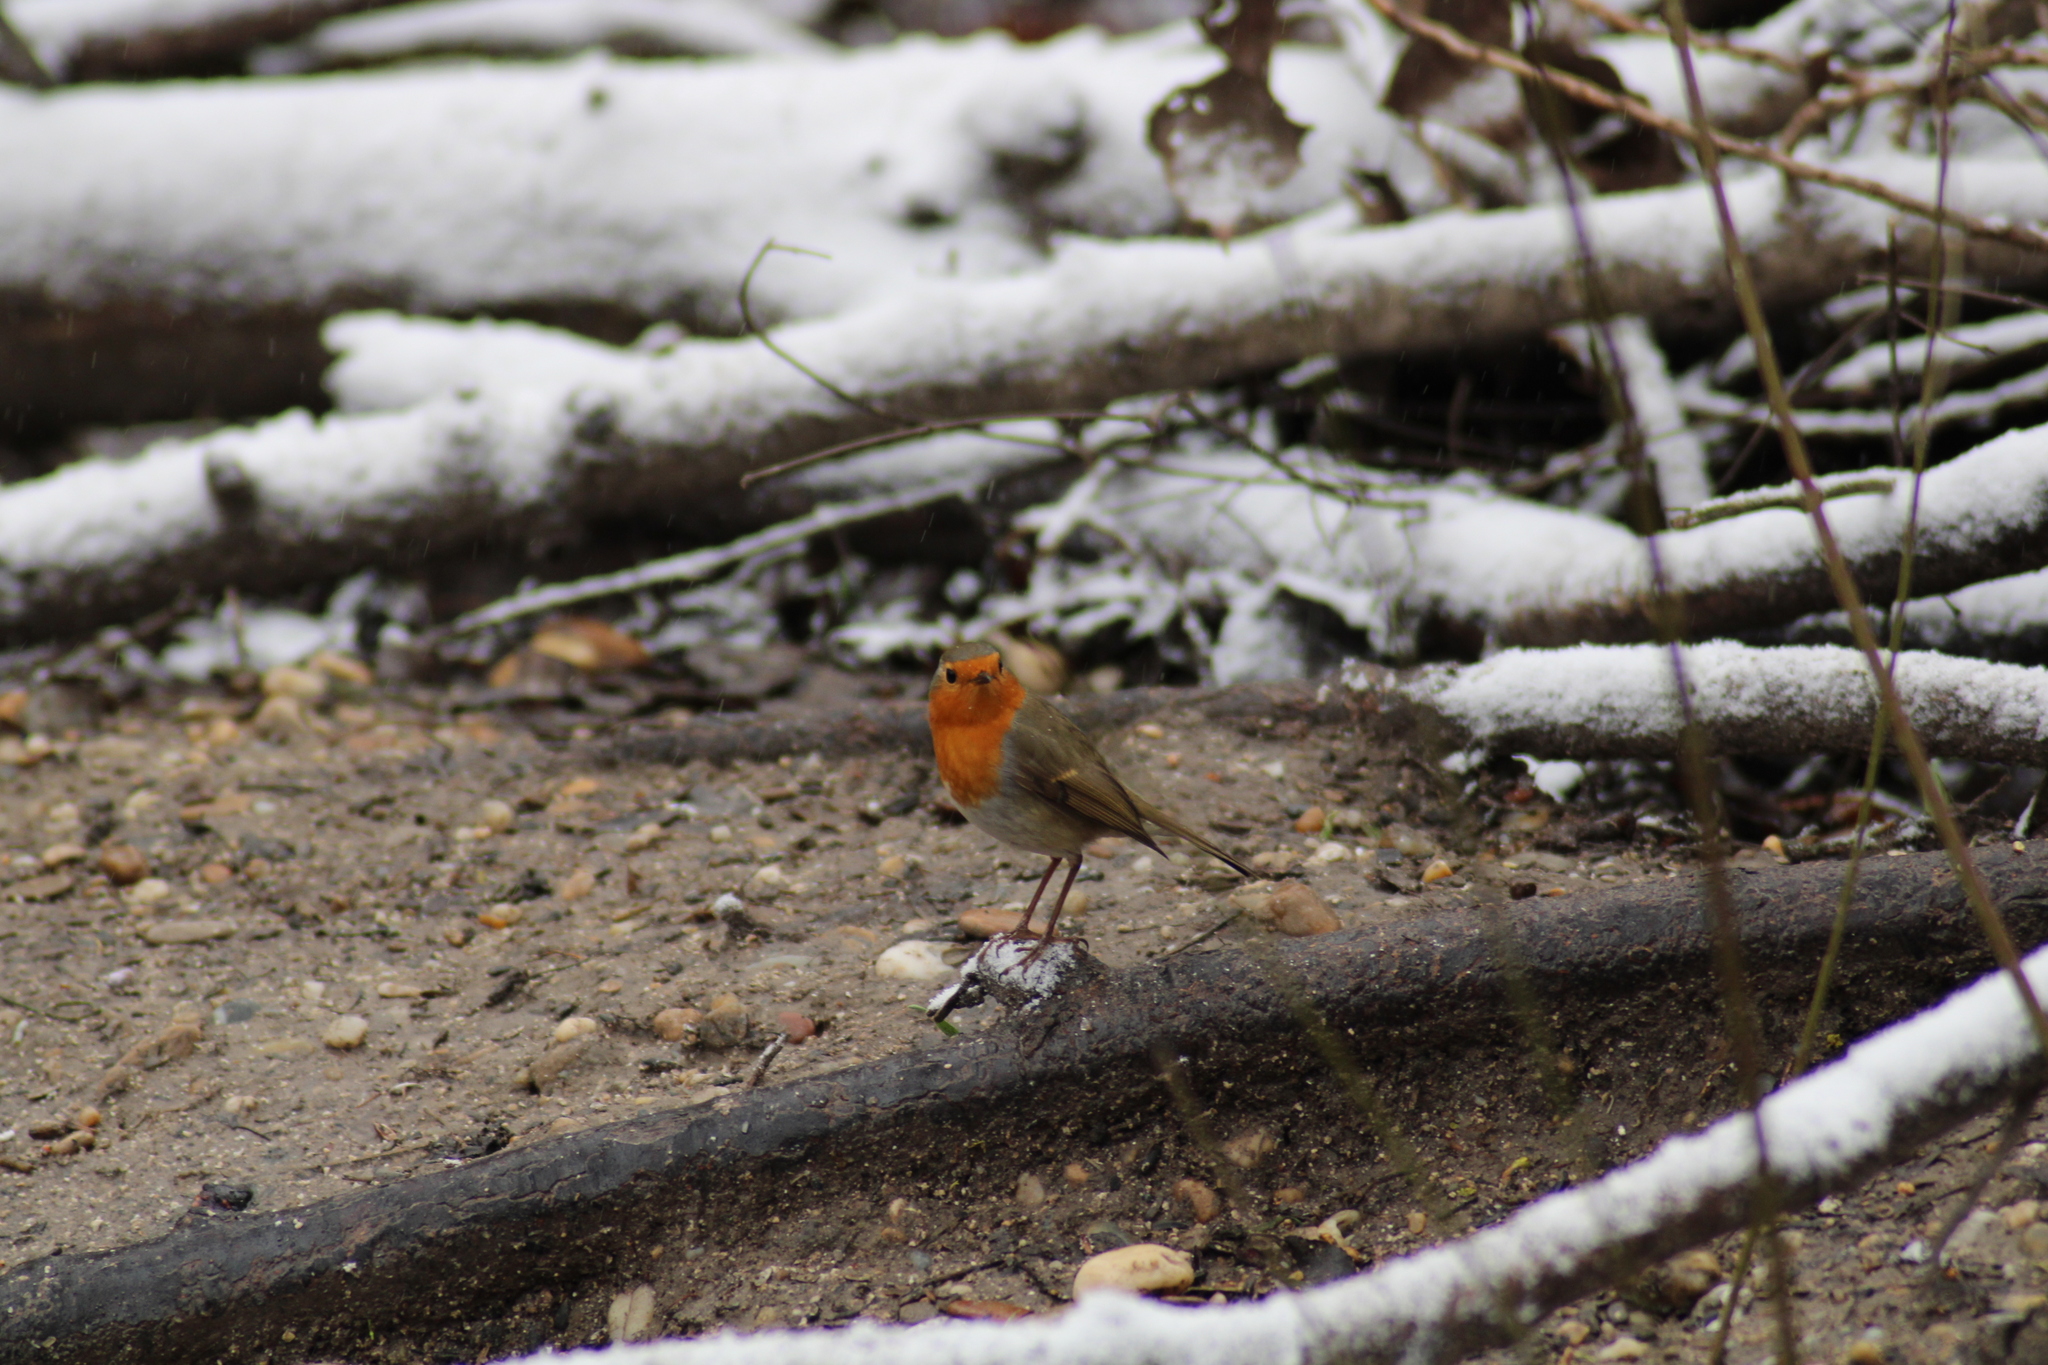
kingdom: Animalia
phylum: Chordata
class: Aves
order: Passeriformes
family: Muscicapidae
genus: Erithacus
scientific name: Erithacus rubecula
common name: European robin
